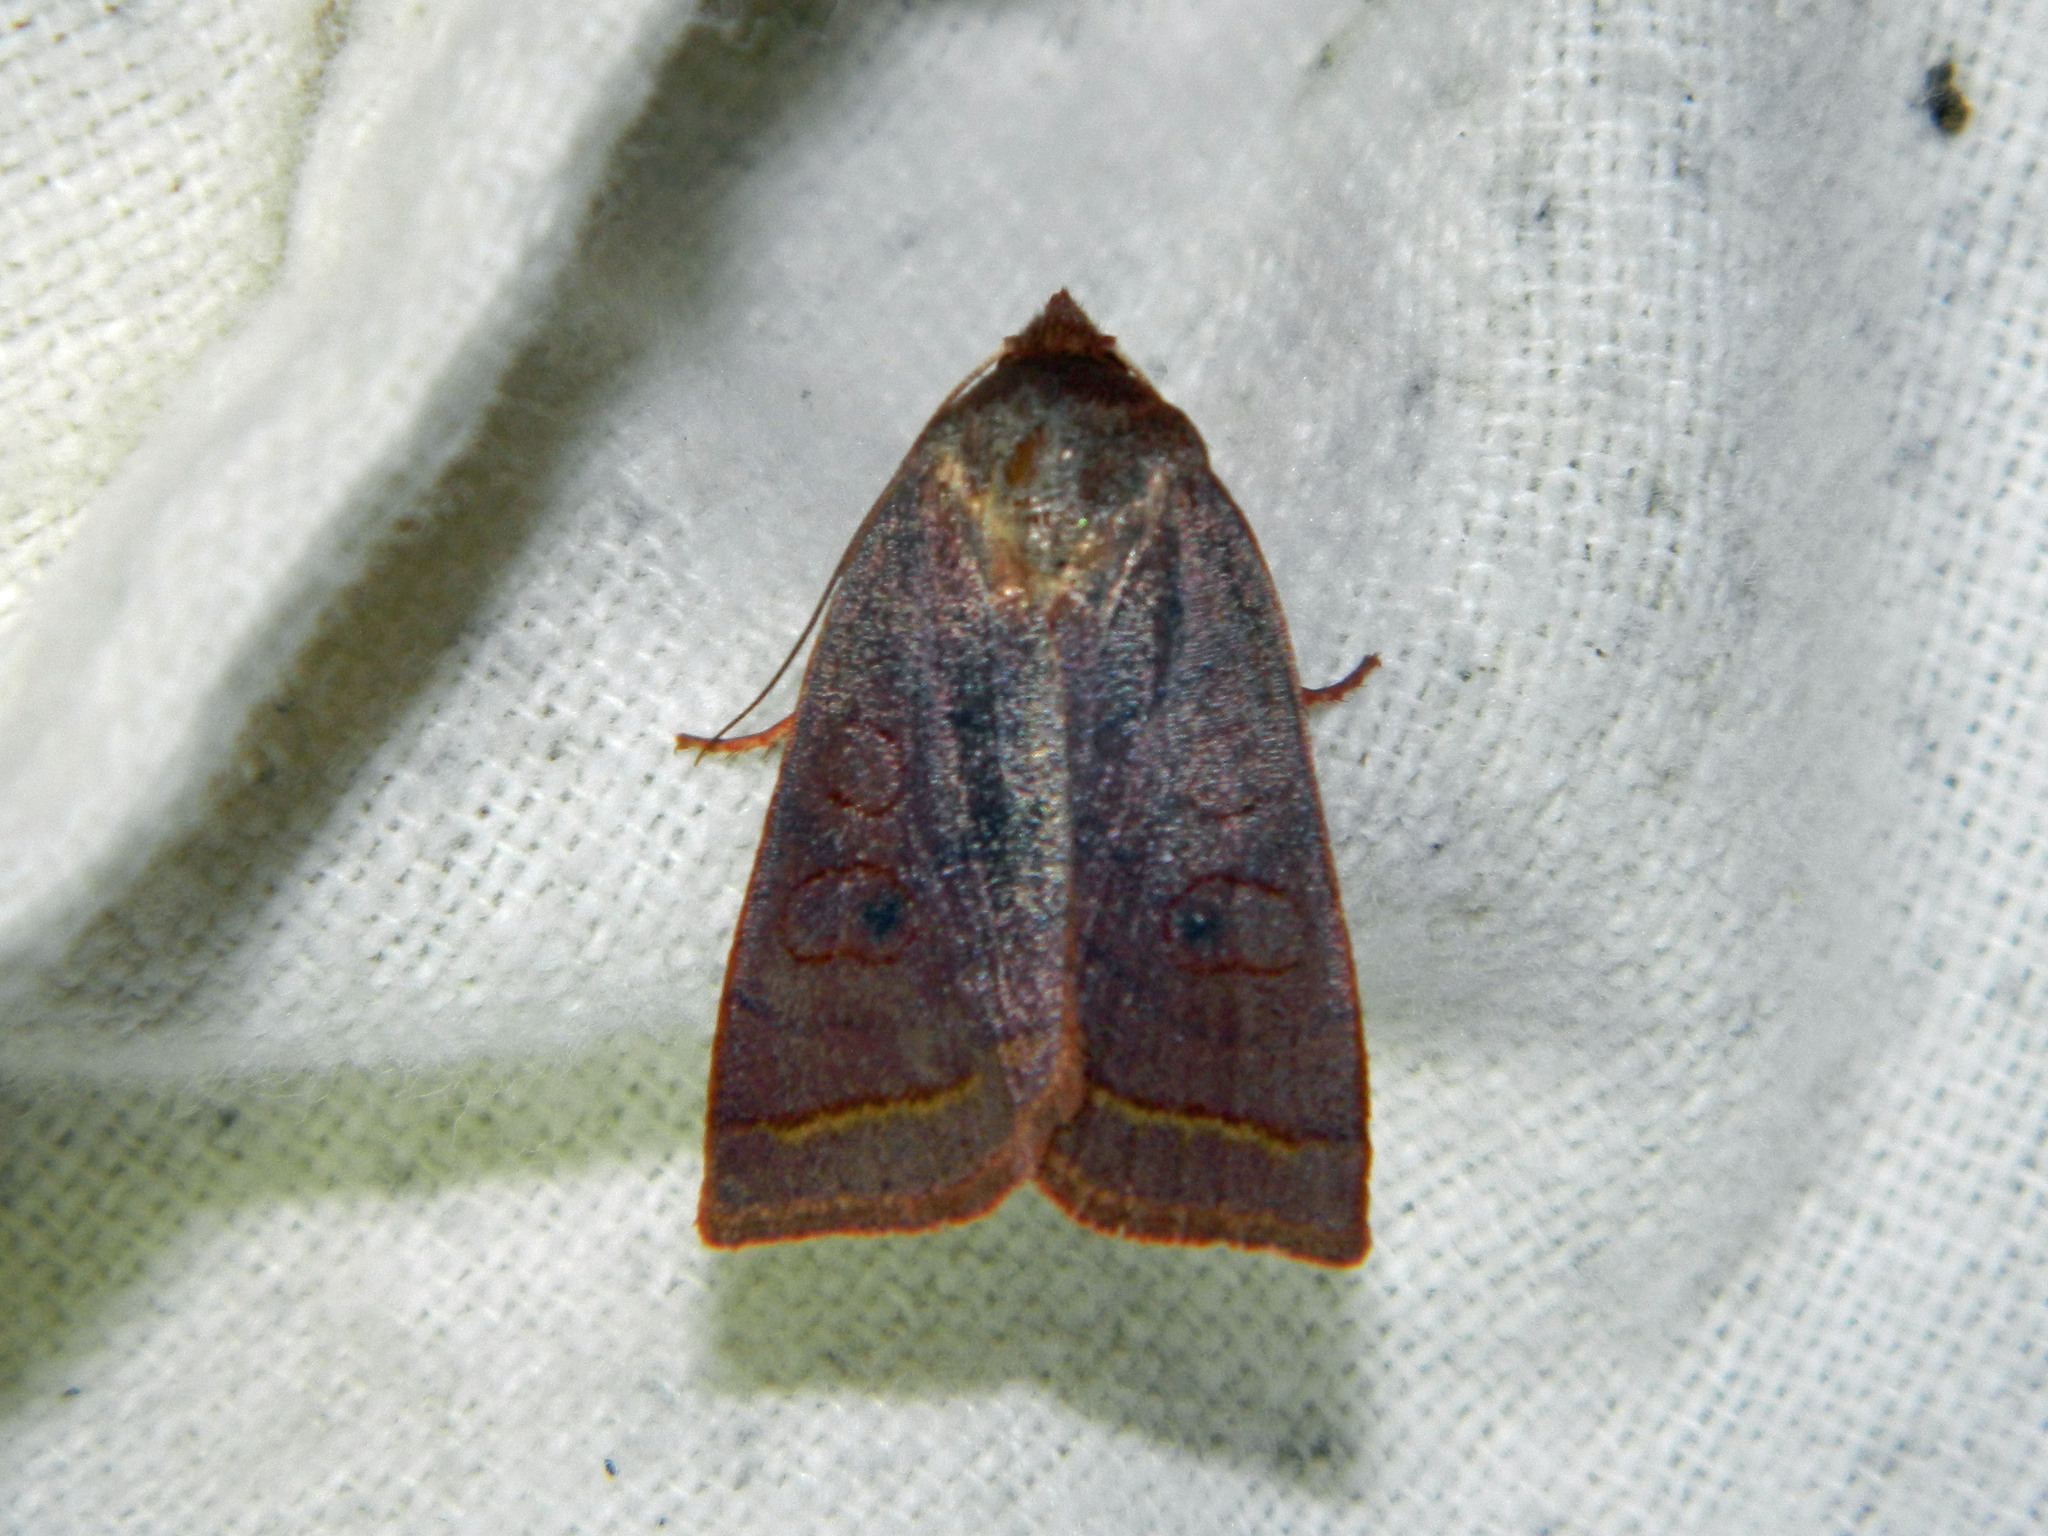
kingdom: Animalia
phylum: Arthropoda
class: Insecta
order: Lepidoptera
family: Noctuidae
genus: Epiglaea
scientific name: Epiglaea apiata
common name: Pointed sallow
